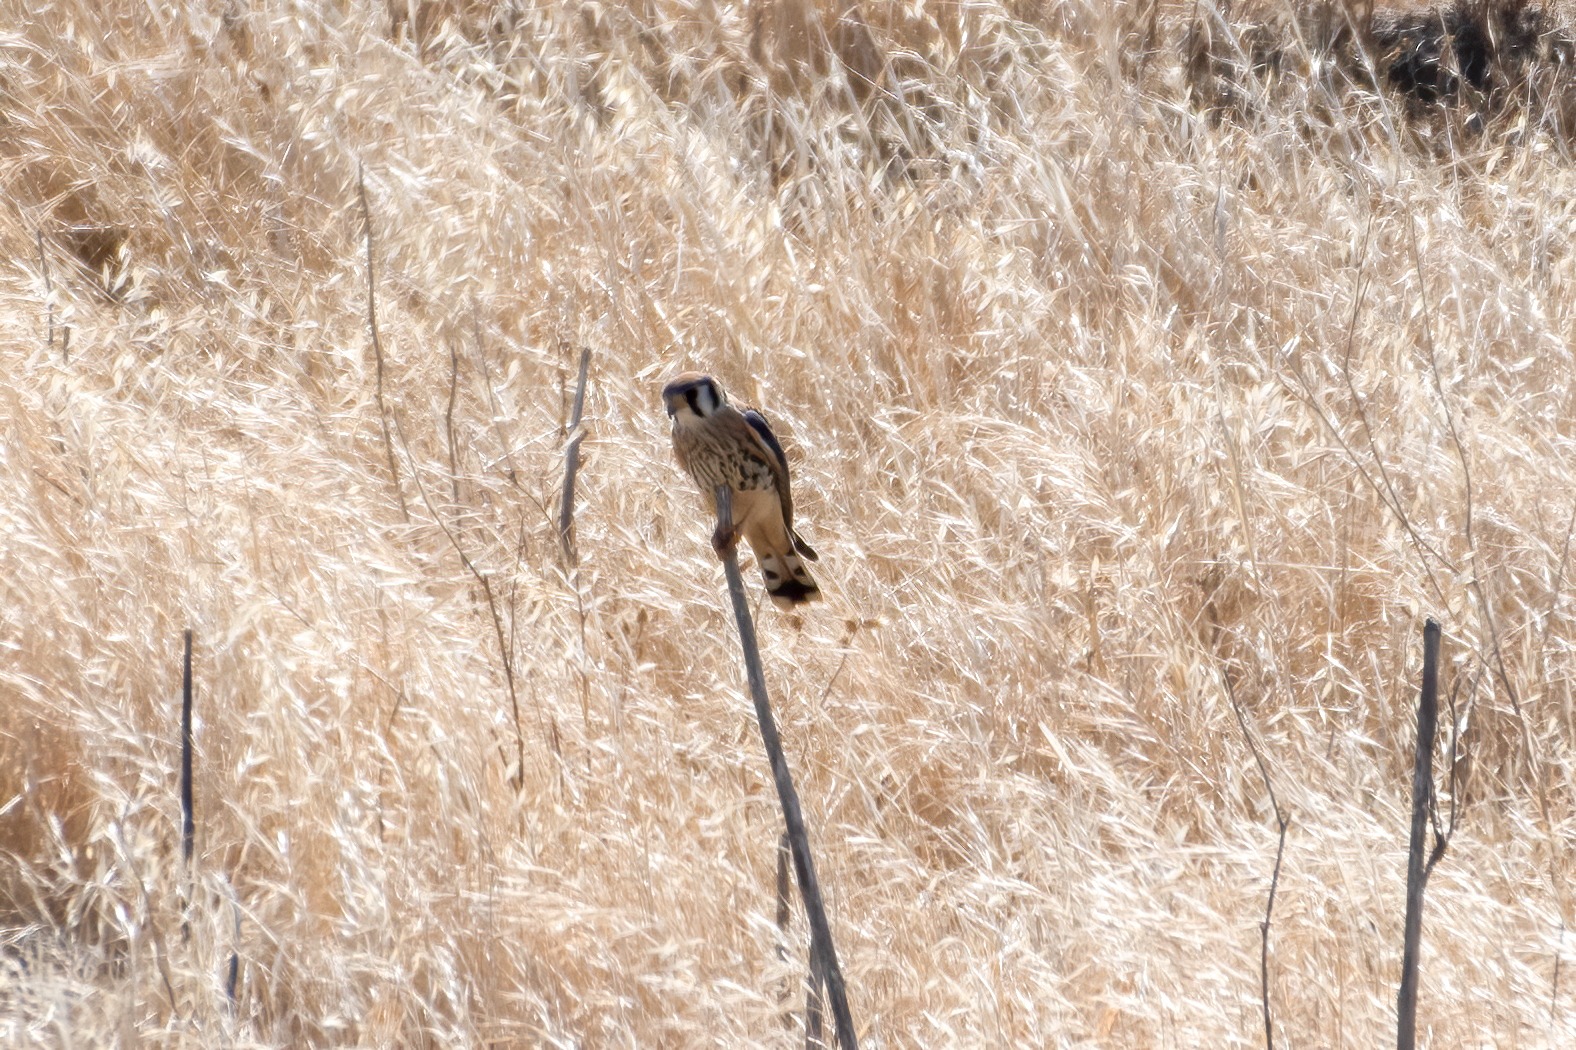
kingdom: Animalia
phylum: Chordata
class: Aves
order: Falconiformes
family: Falconidae
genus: Falco
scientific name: Falco sparverius
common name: American kestrel
